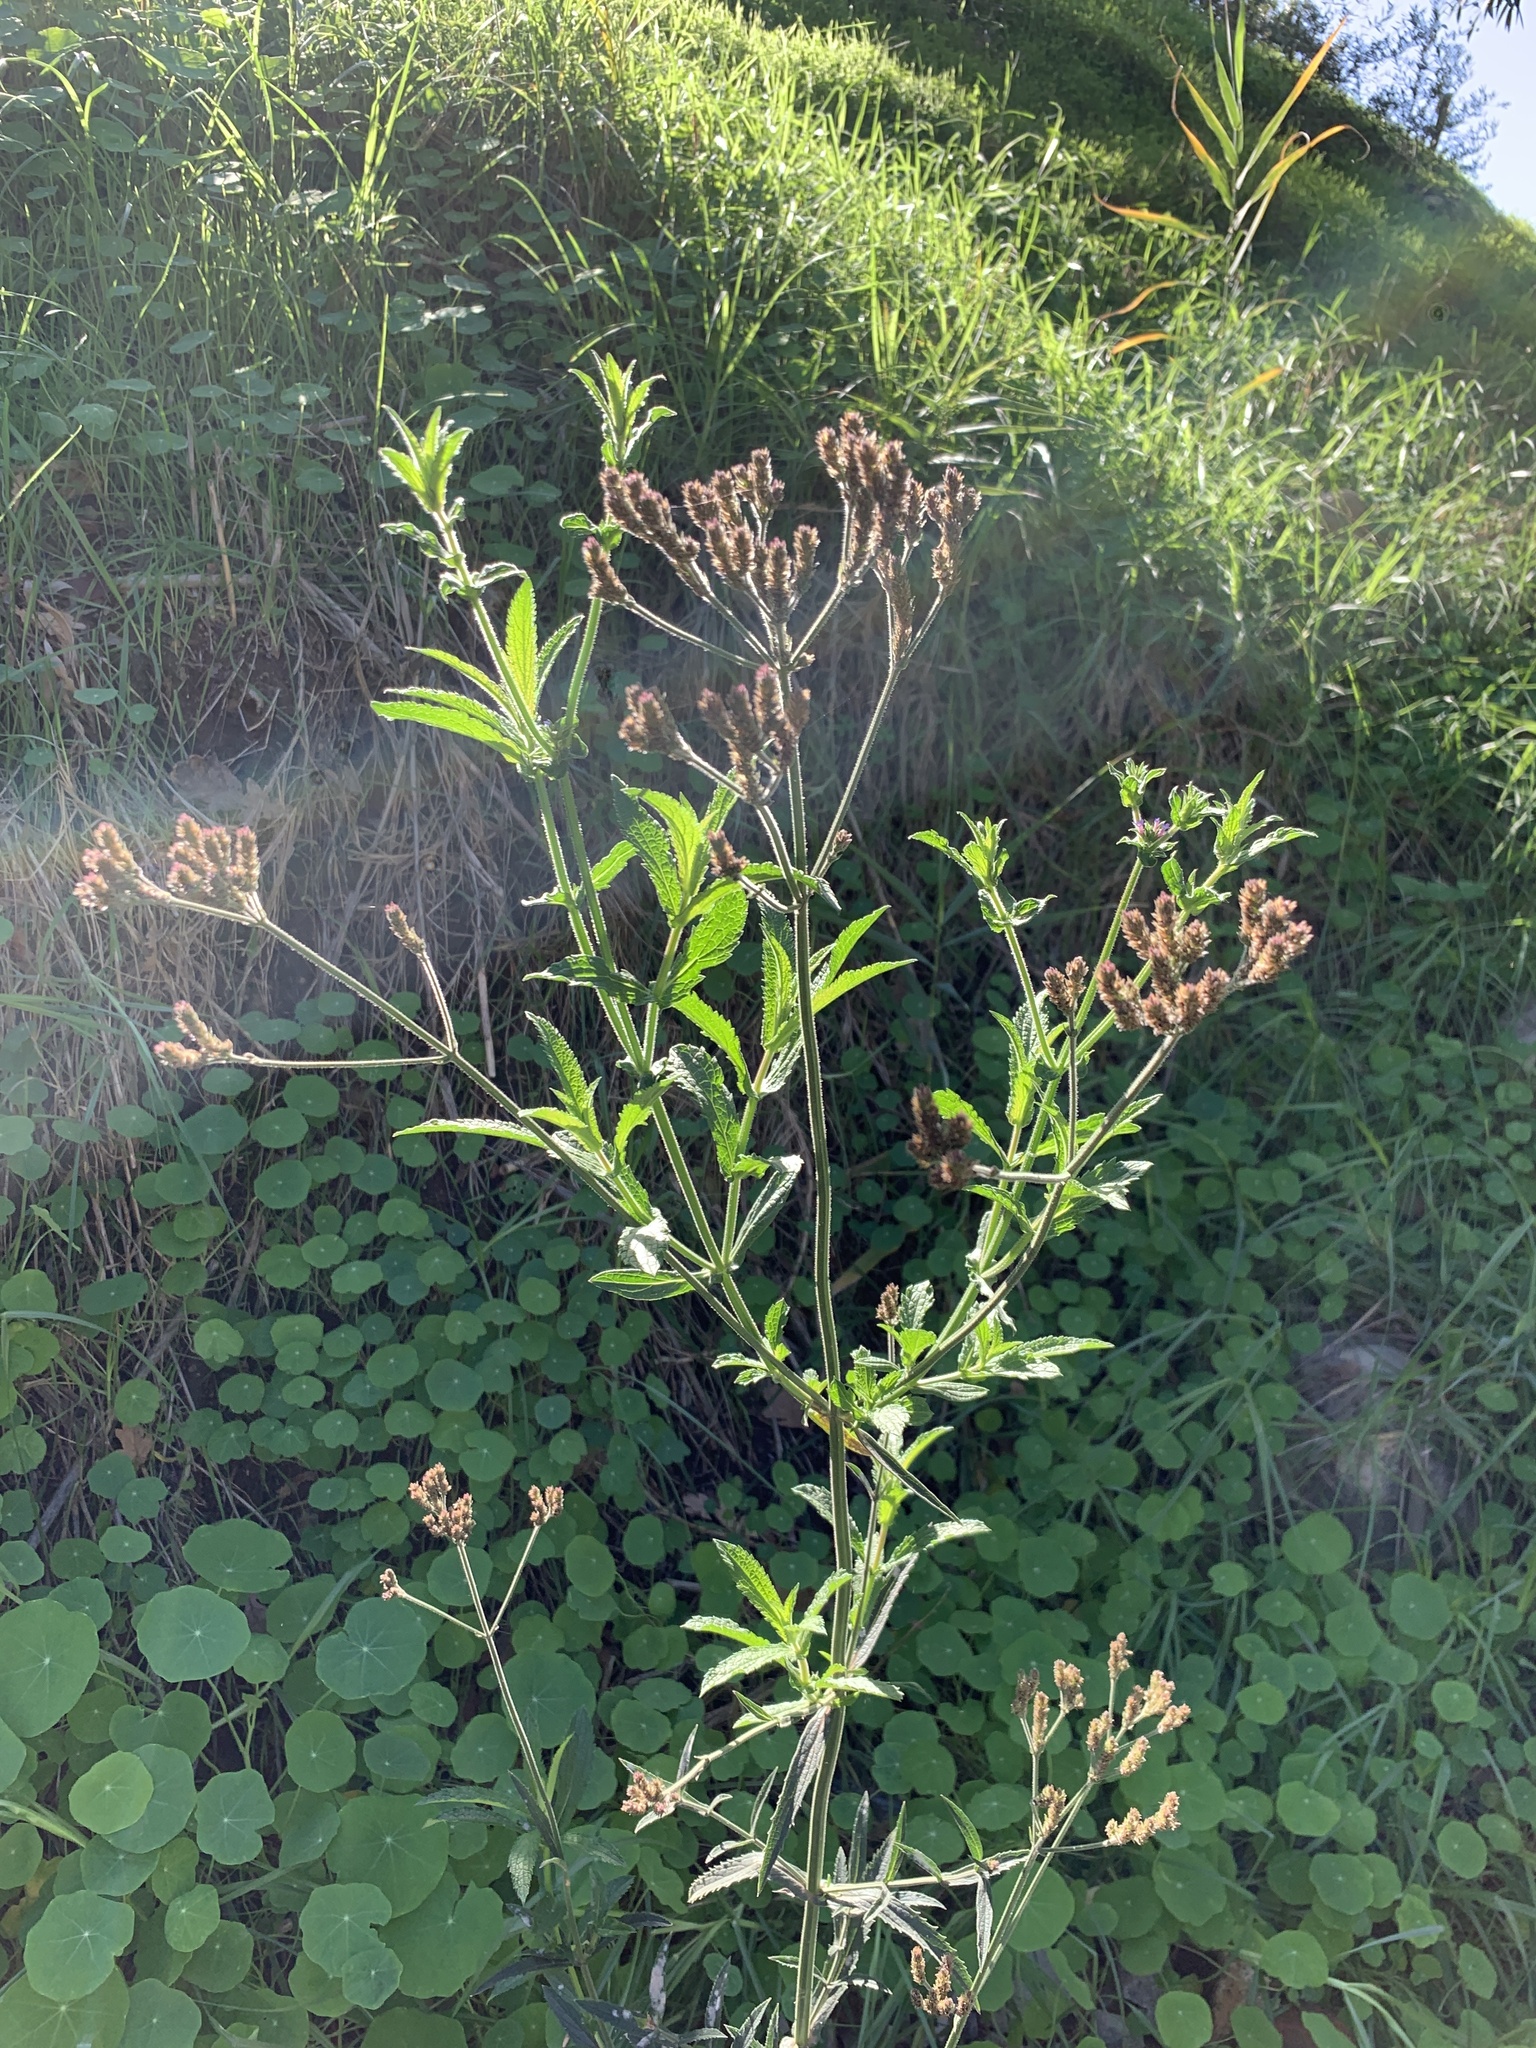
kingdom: Plantae
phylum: Tracheophyta
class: Magnoliopsida
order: Lamiales
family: Verbenaceae
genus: Verbena
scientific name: Verbena bonariensis
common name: Purpletop vervain
